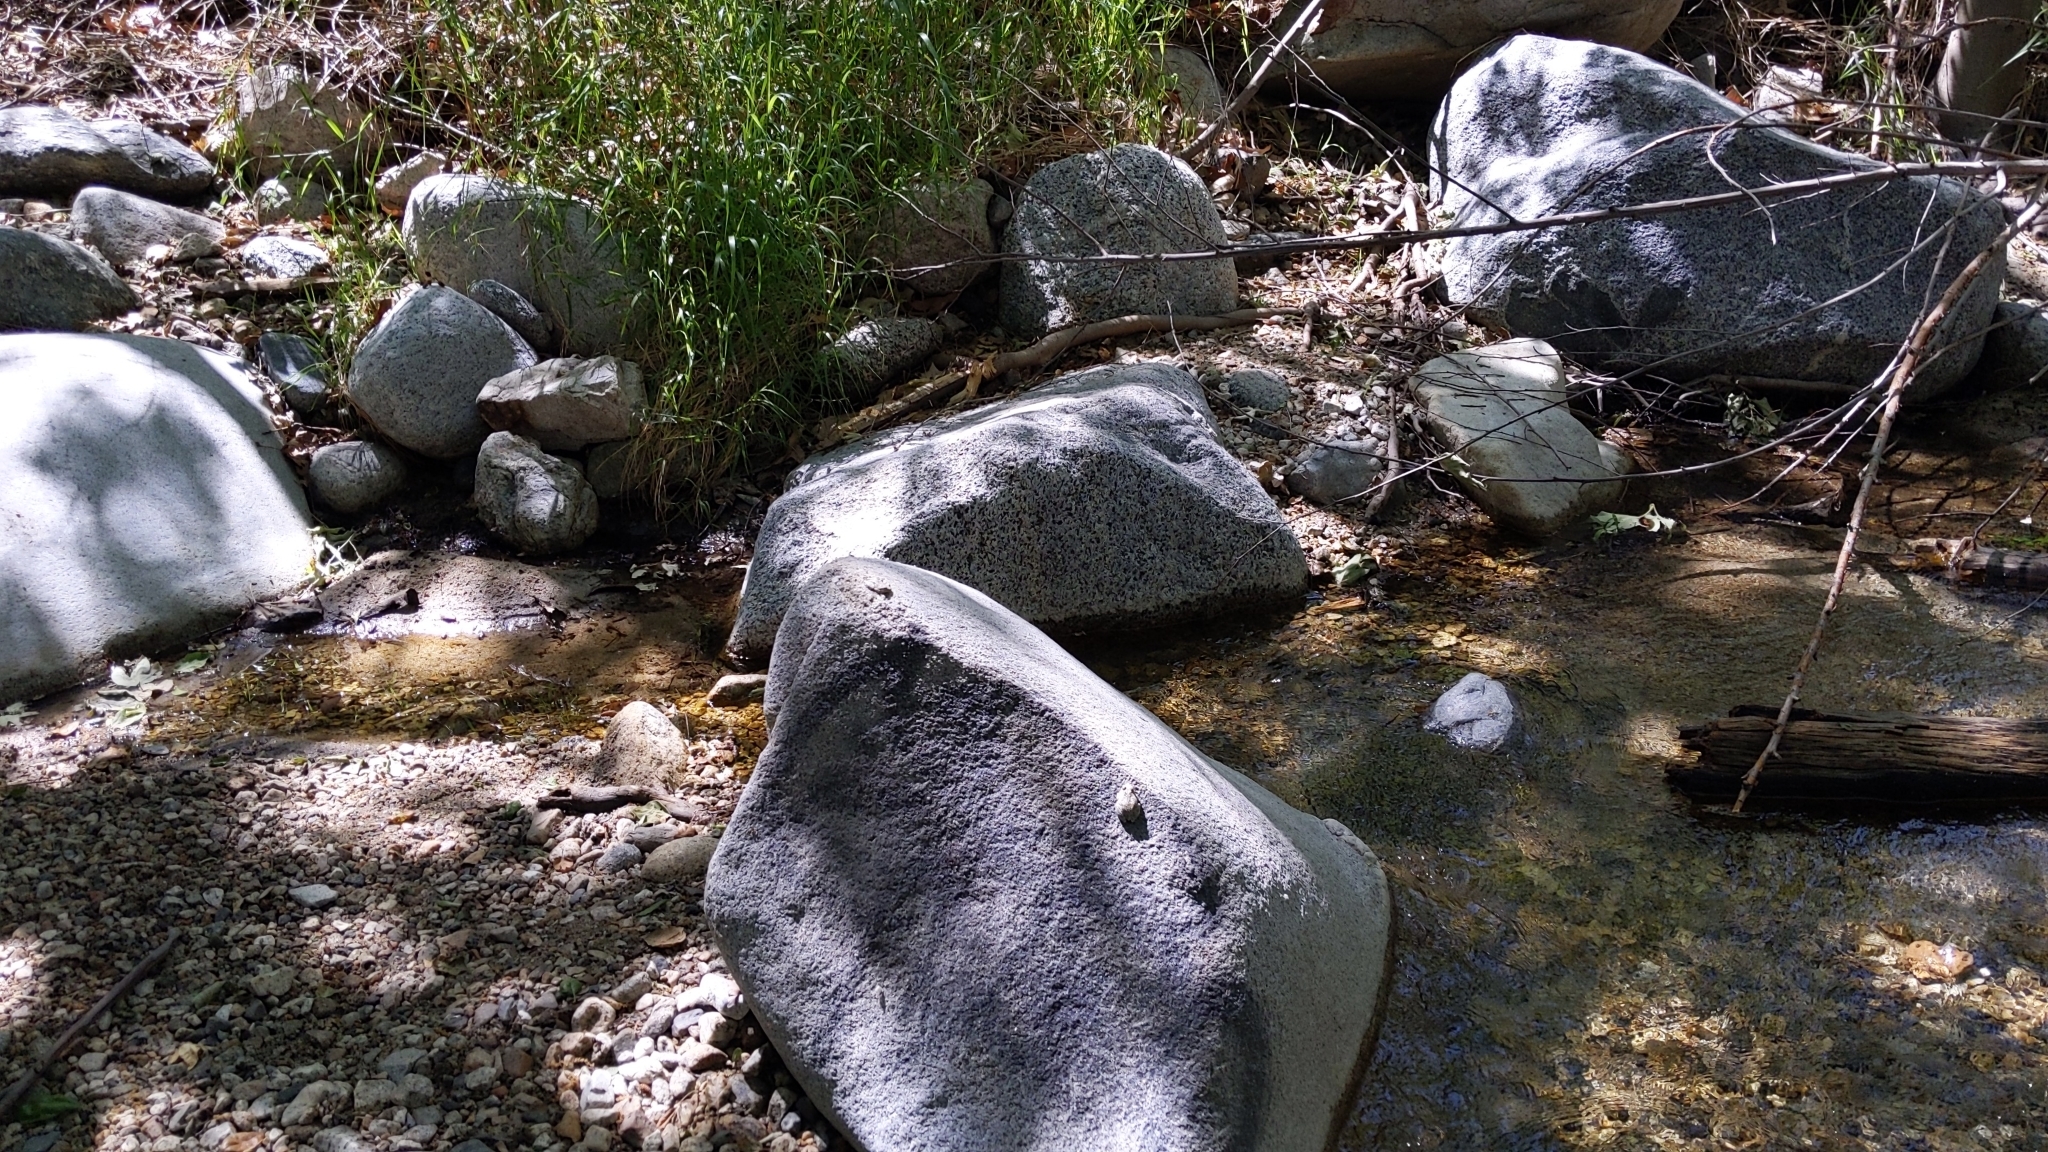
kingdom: Animalia
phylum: Chordata
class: Amphibia
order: Anura
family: Hylidae
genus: Pseudacris
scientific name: Pseudacris cadaverina
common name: California chorus frog
